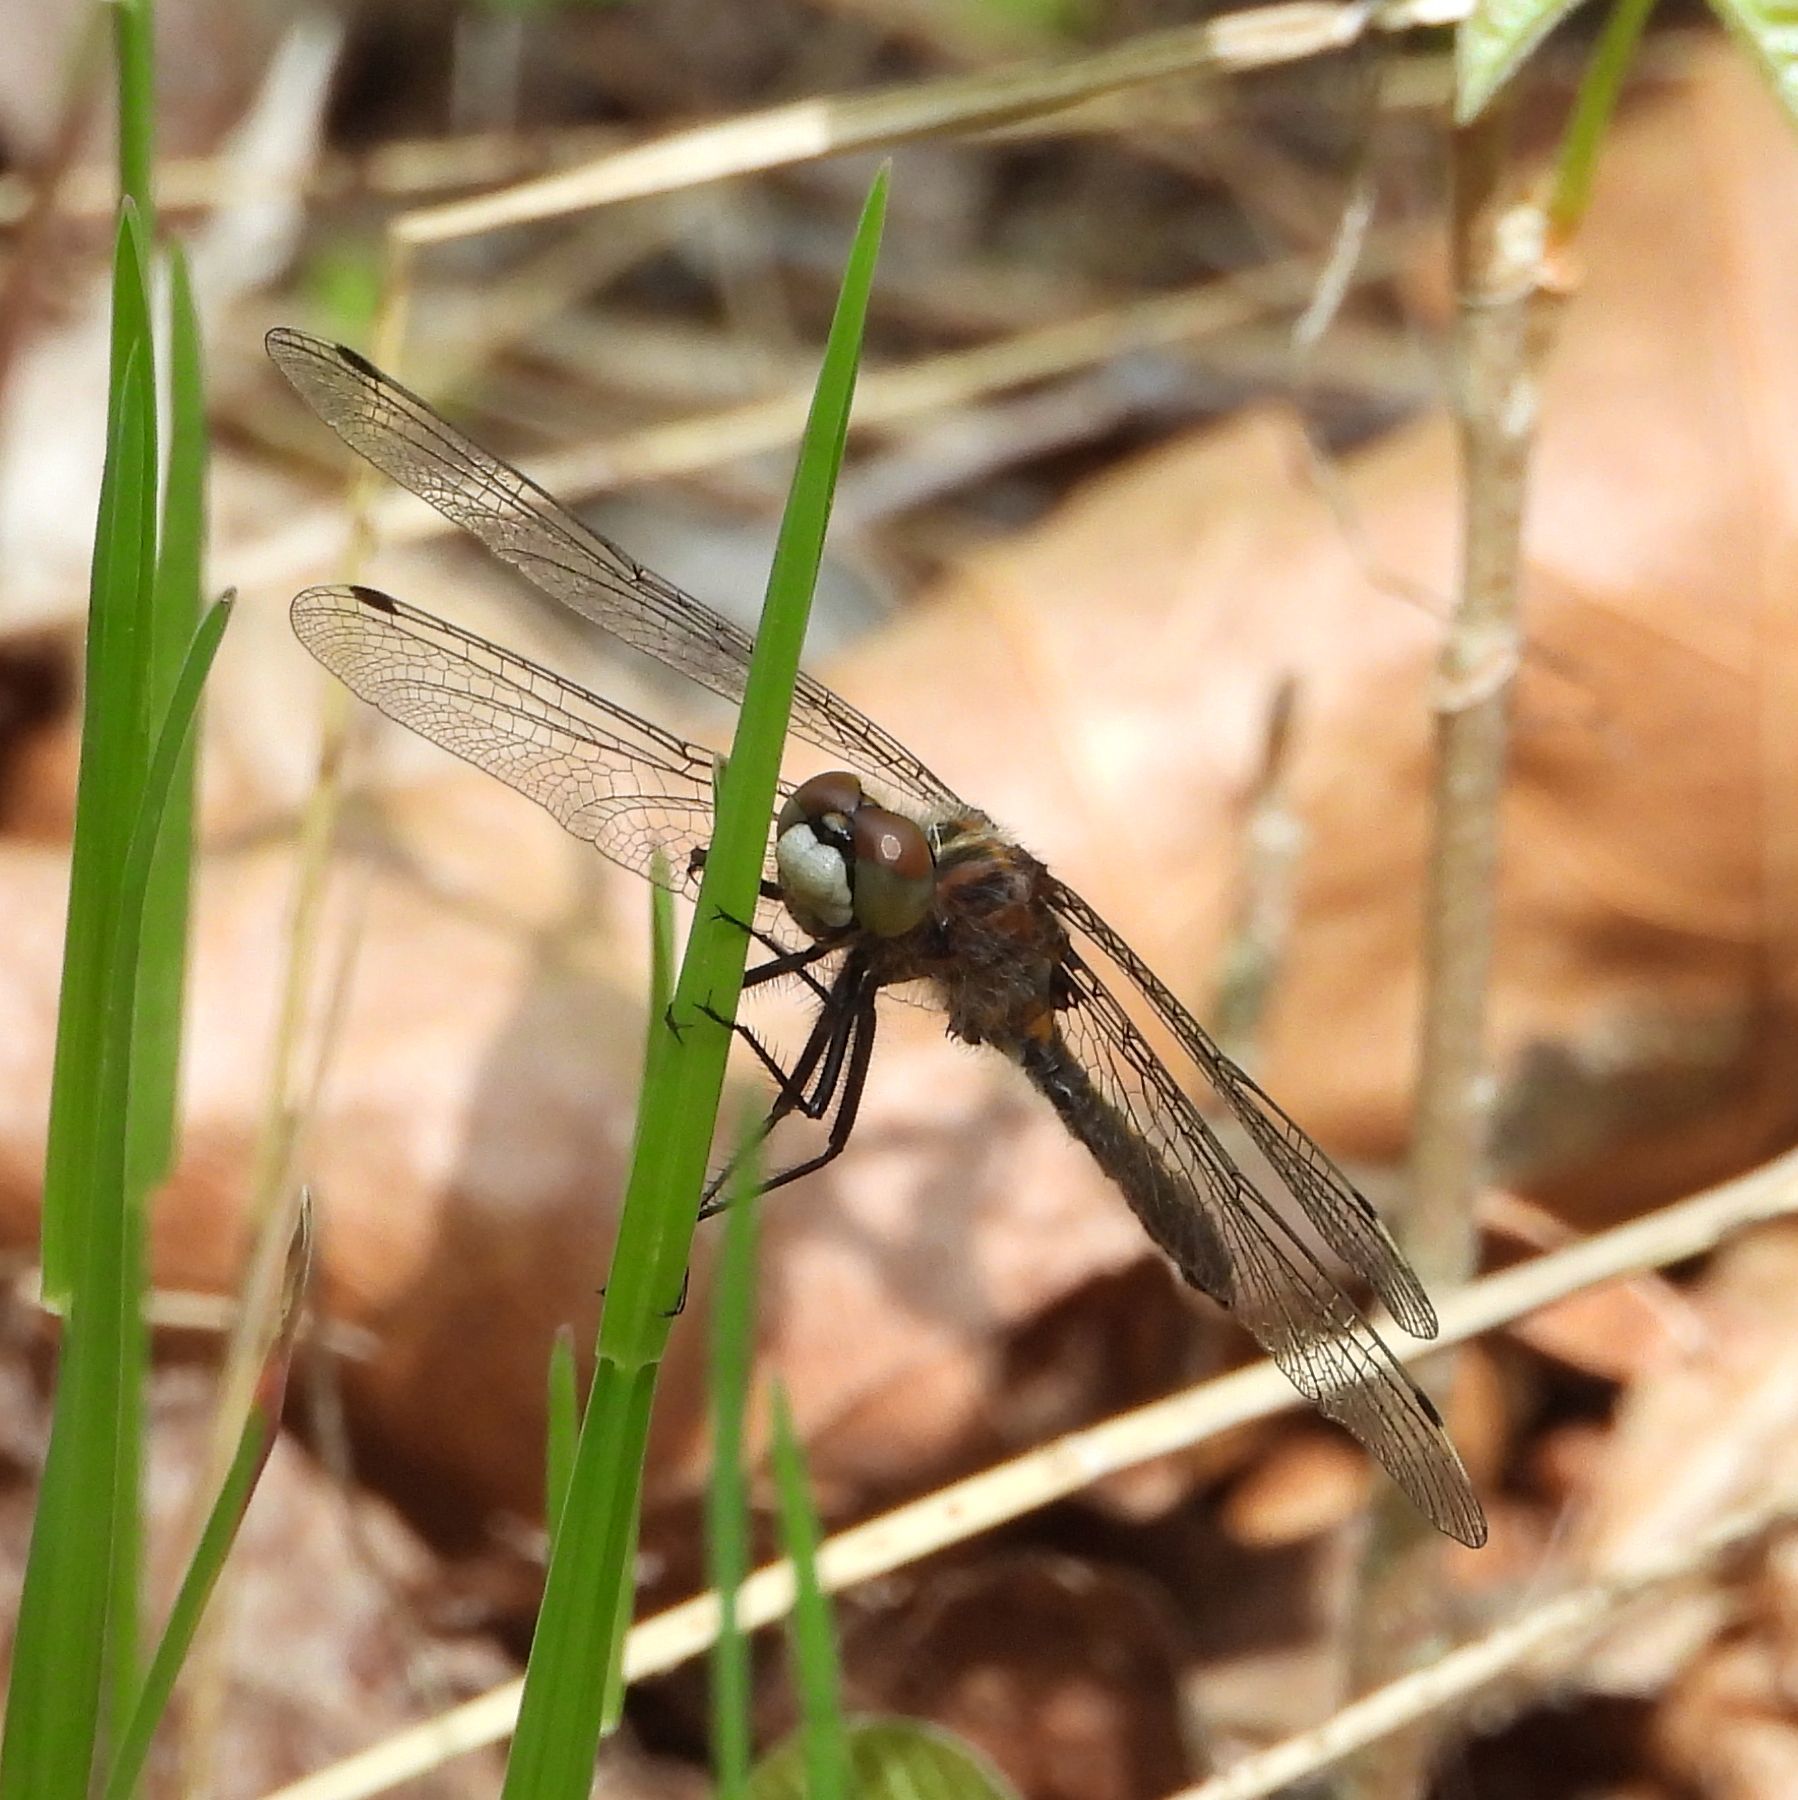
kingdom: Animalia
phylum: Arthropoda
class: Insecta
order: Odonata
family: Libellulidae
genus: Leucorrhinia
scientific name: Leucorrhinia intacta
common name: Dot-tailed whiteface
